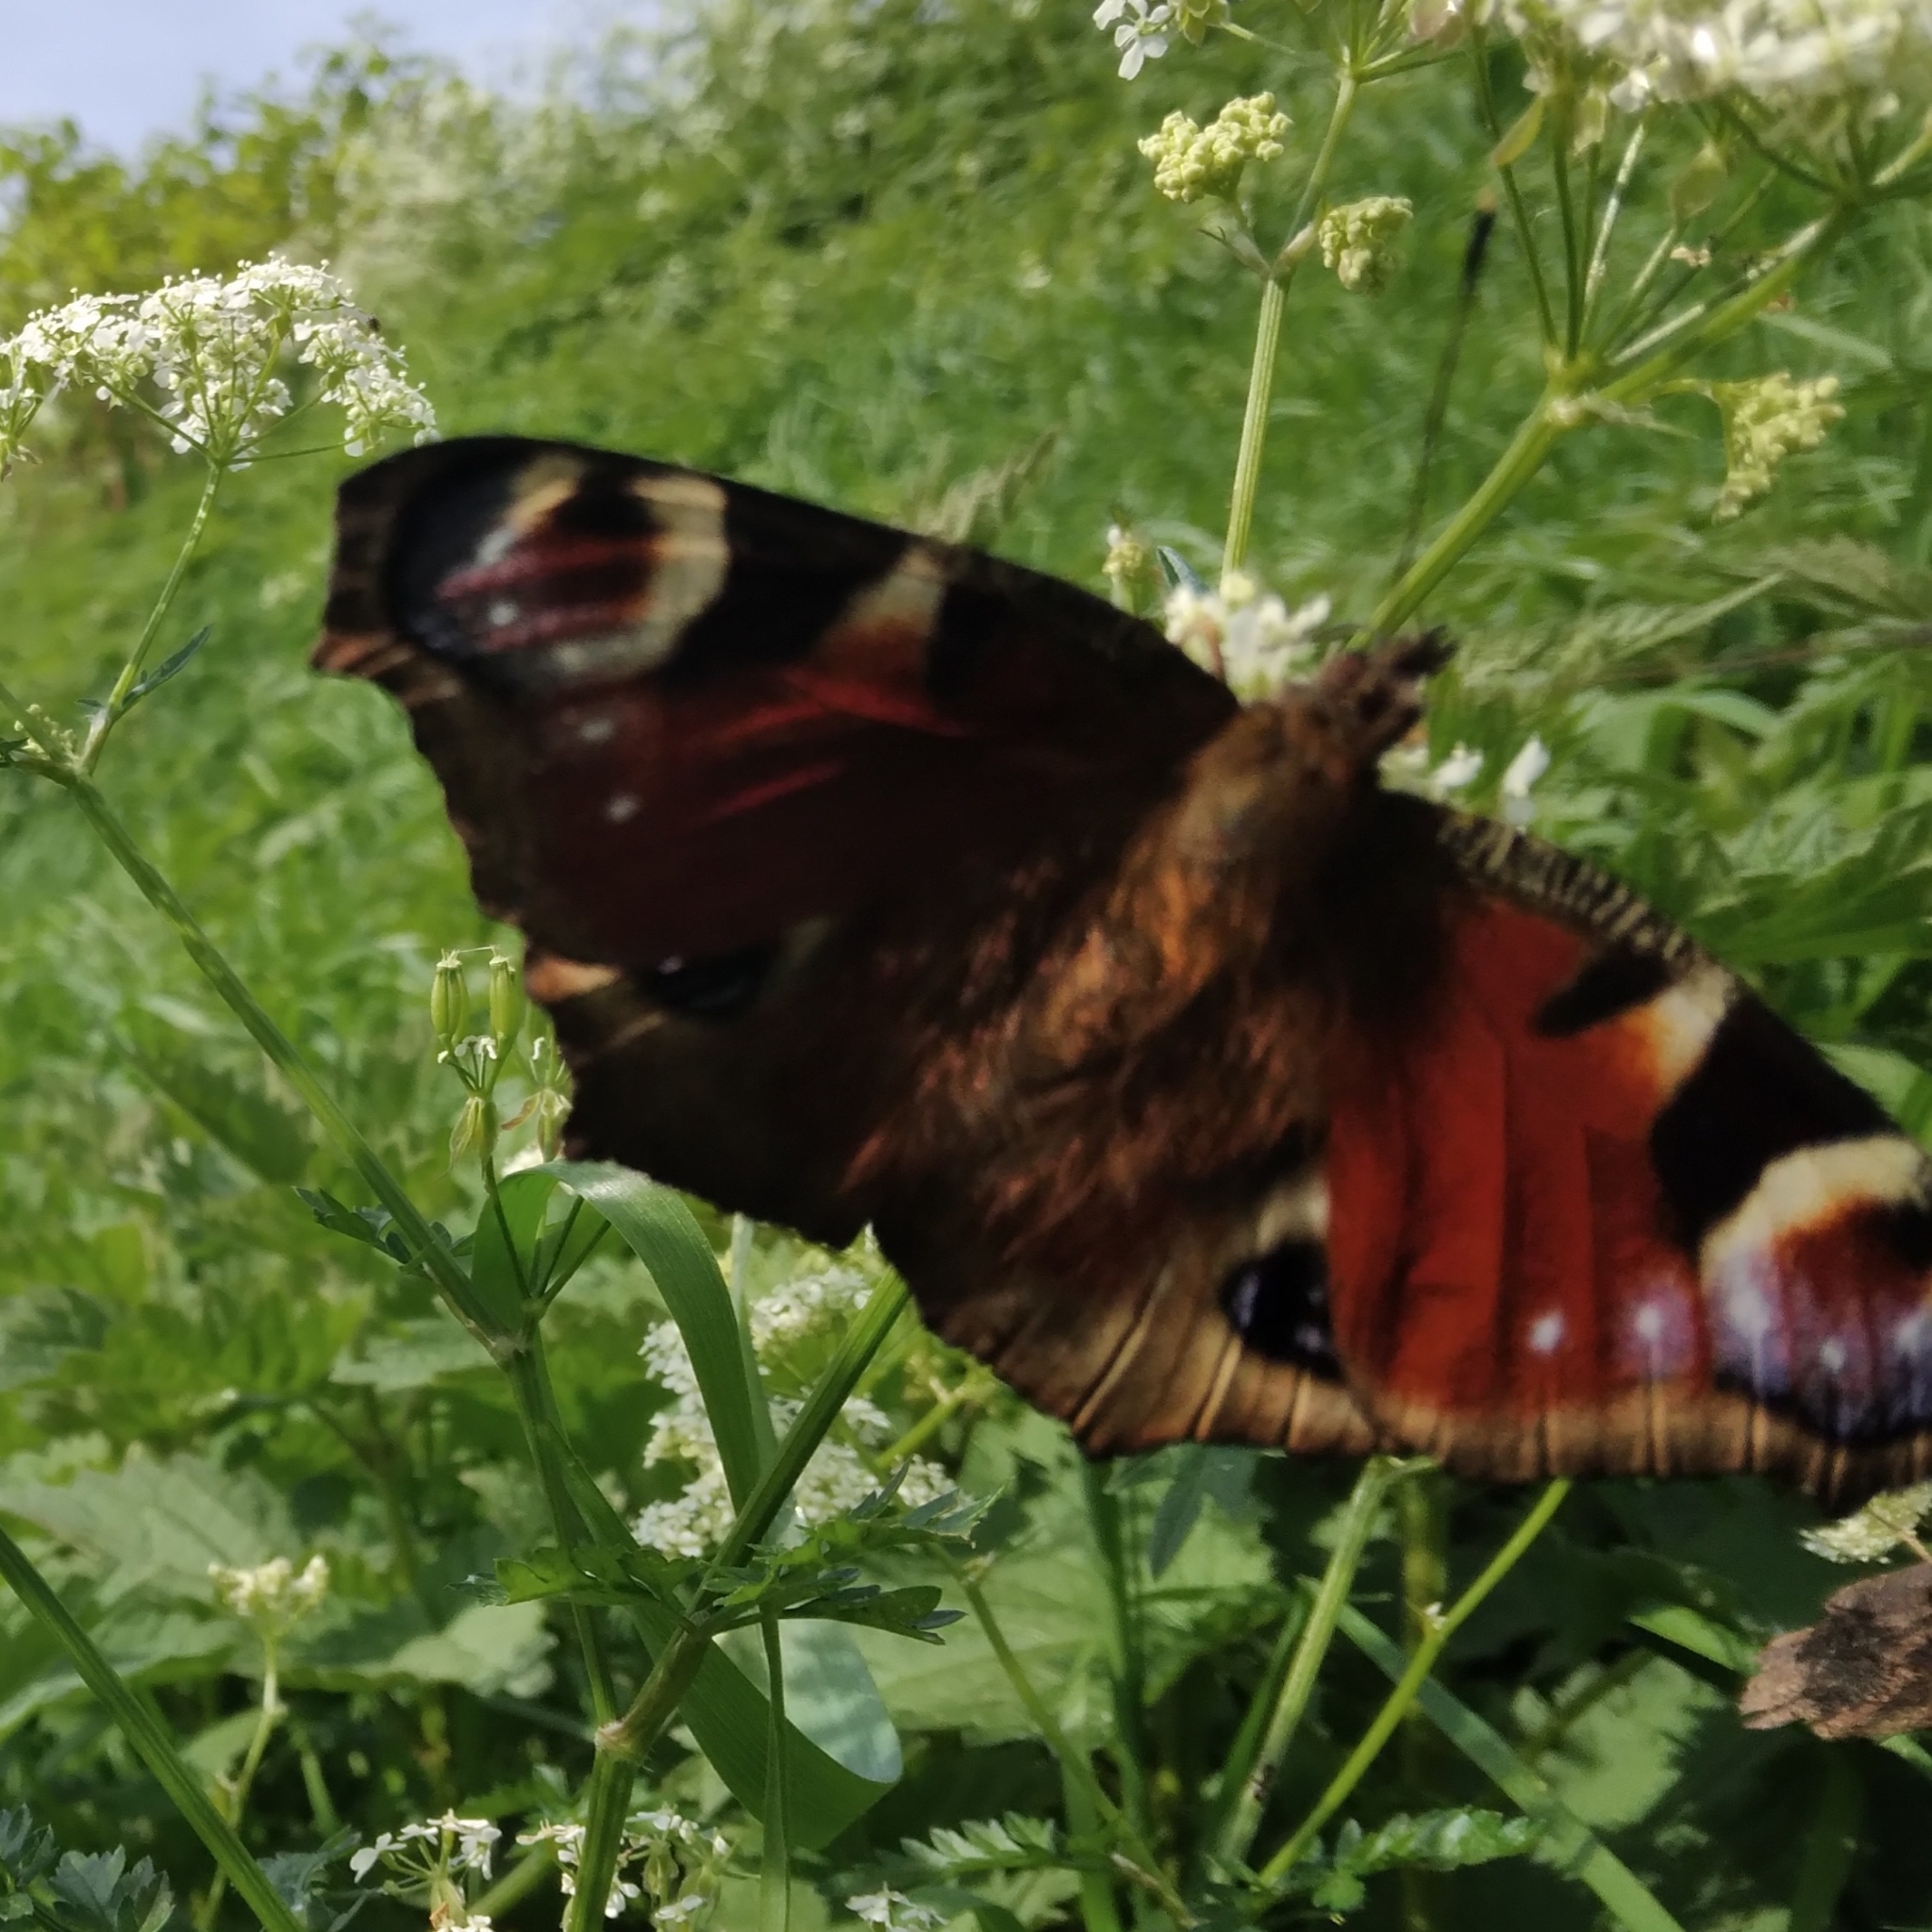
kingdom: Animalia
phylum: Arthropoda
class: Insecta
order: Lepidoptera
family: Nymphalidae
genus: Aglais
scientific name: Aglais io
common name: Peacock
